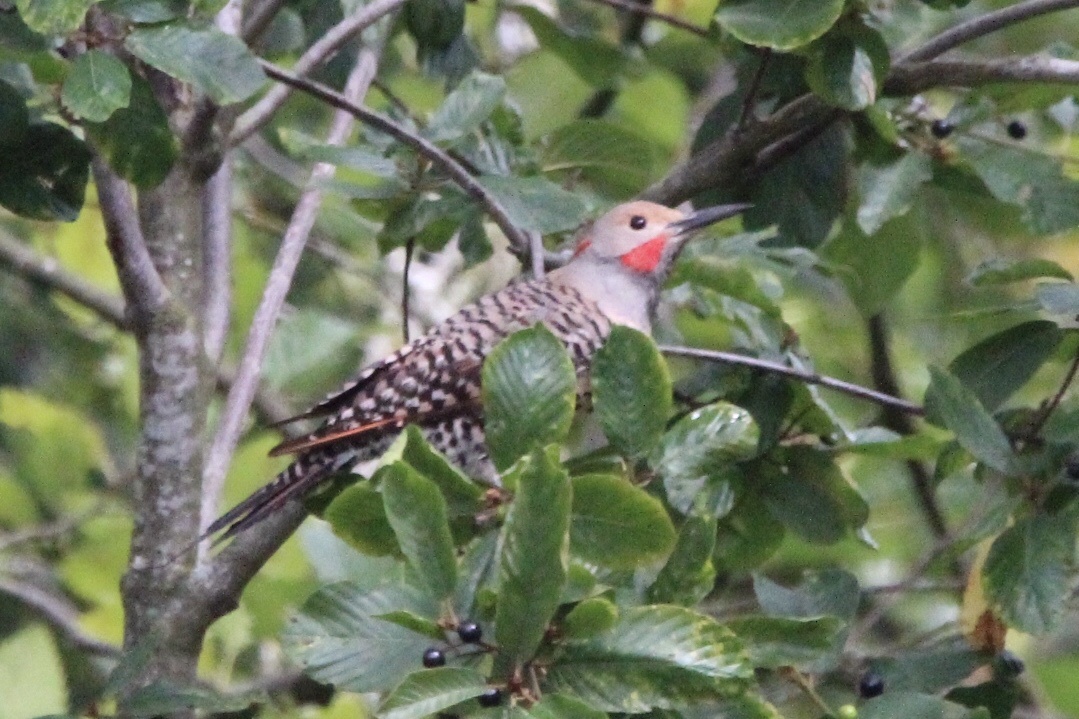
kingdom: Animalia
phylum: Chordata
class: Aves
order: Piciformes
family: Picidae
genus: Colaptes
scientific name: Colaptes
